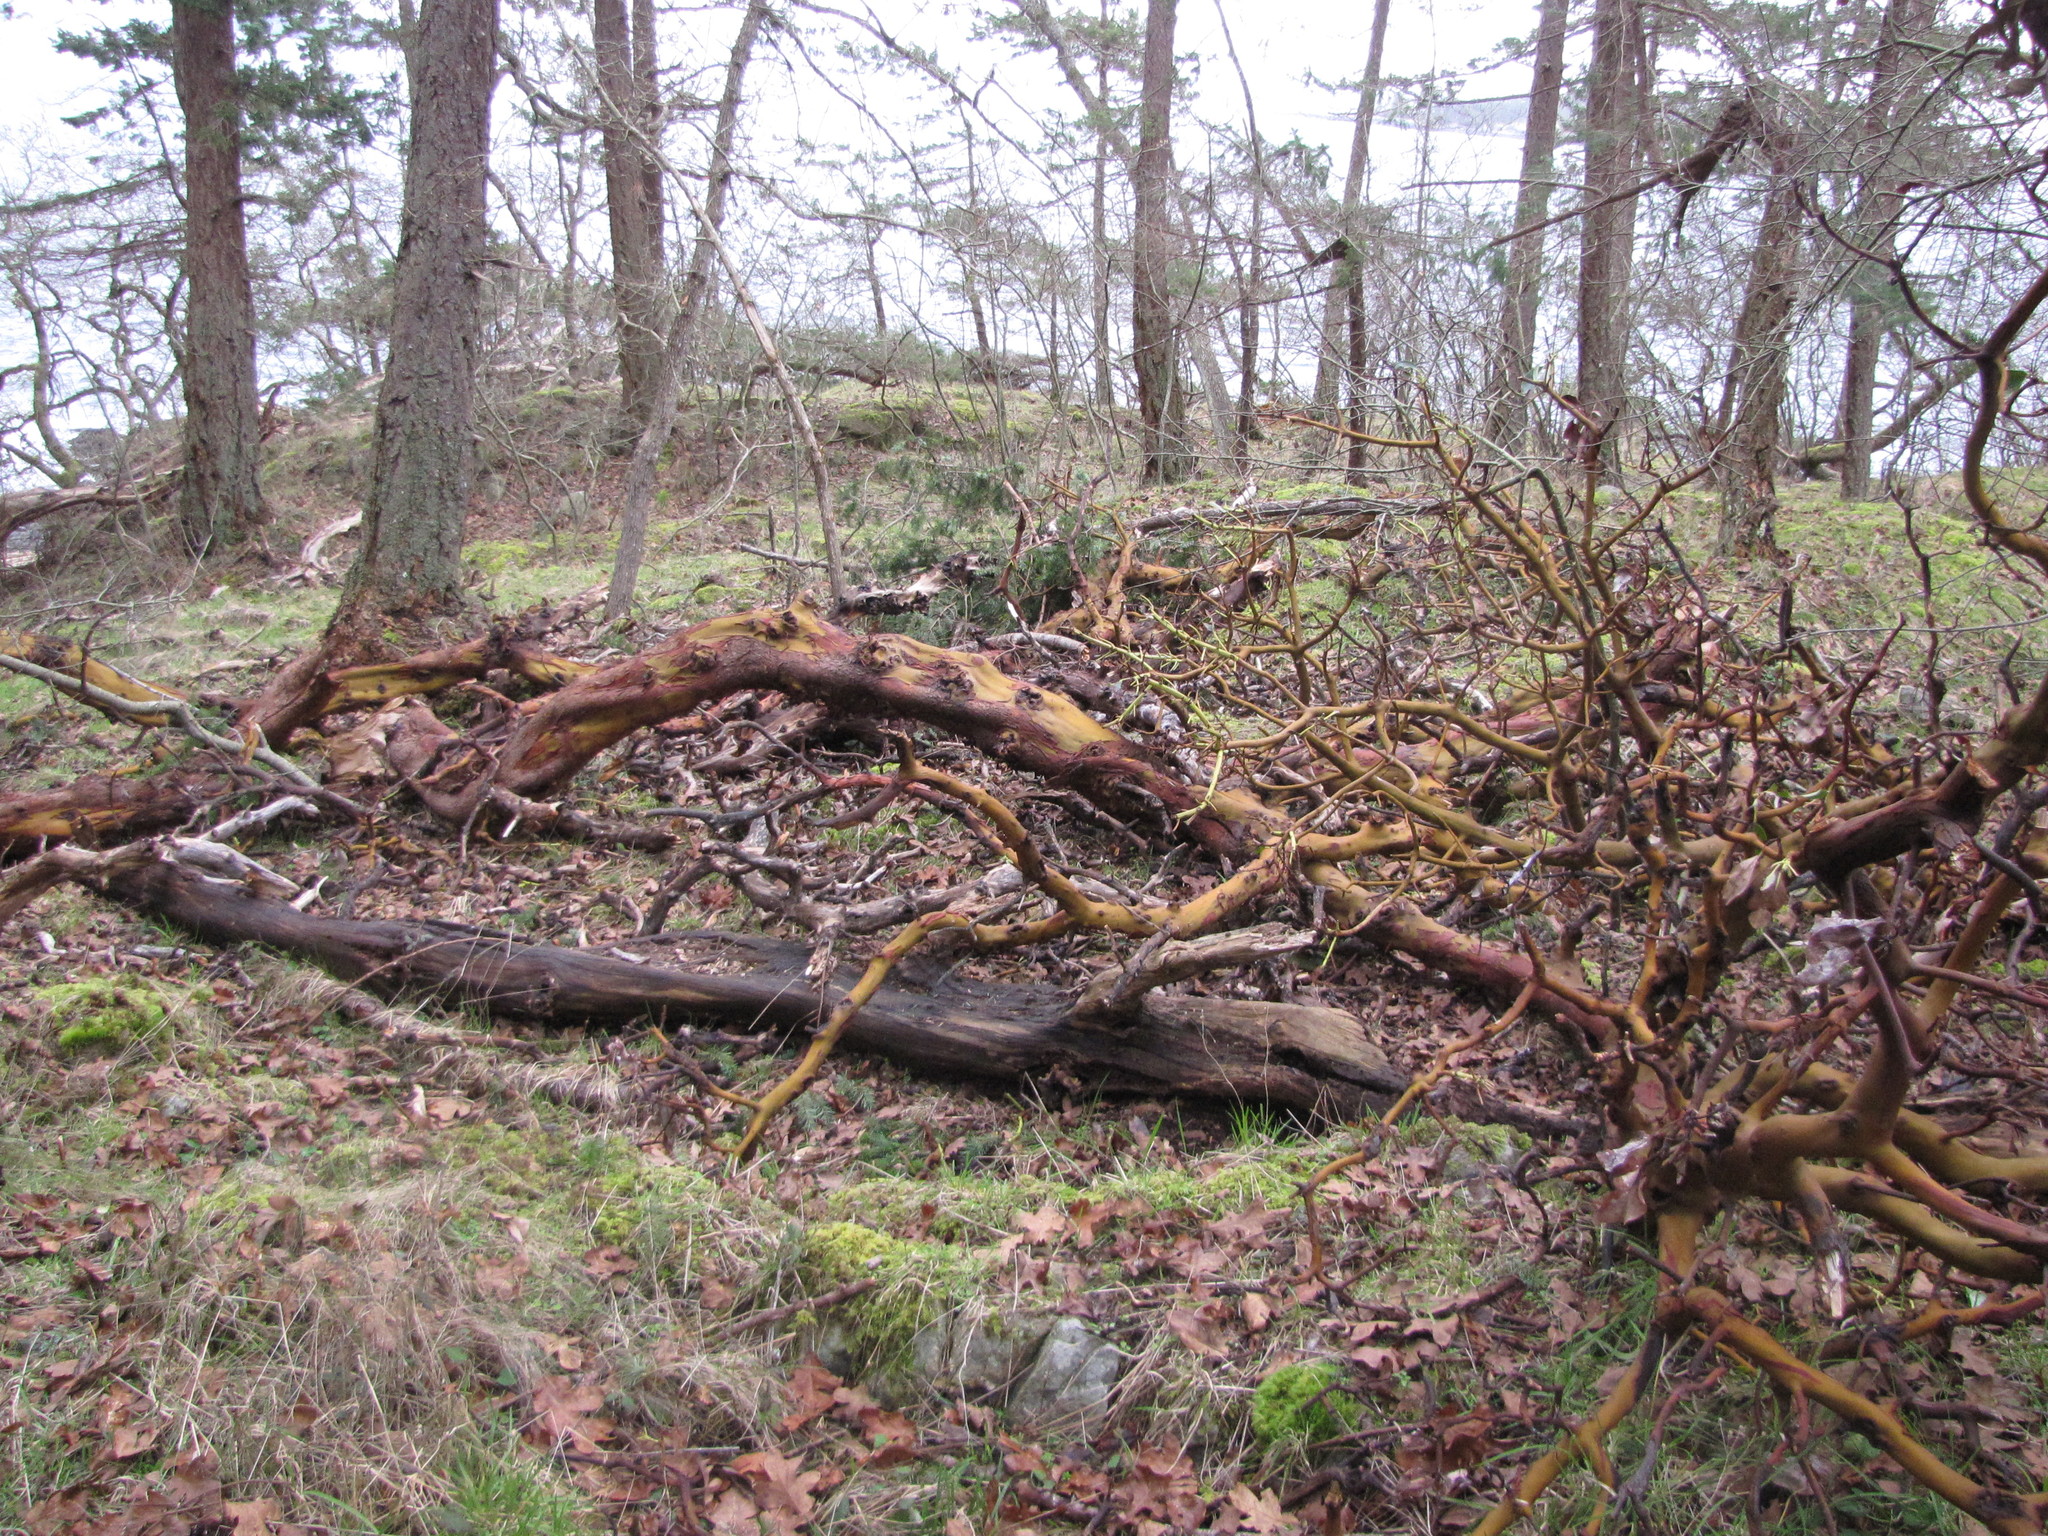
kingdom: Plantae
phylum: Tracheophyta
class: Magnoliopsida
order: Ericales
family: Ericaceae
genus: Arbutus
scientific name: Arbutus menziesii
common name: Pacific madrone
